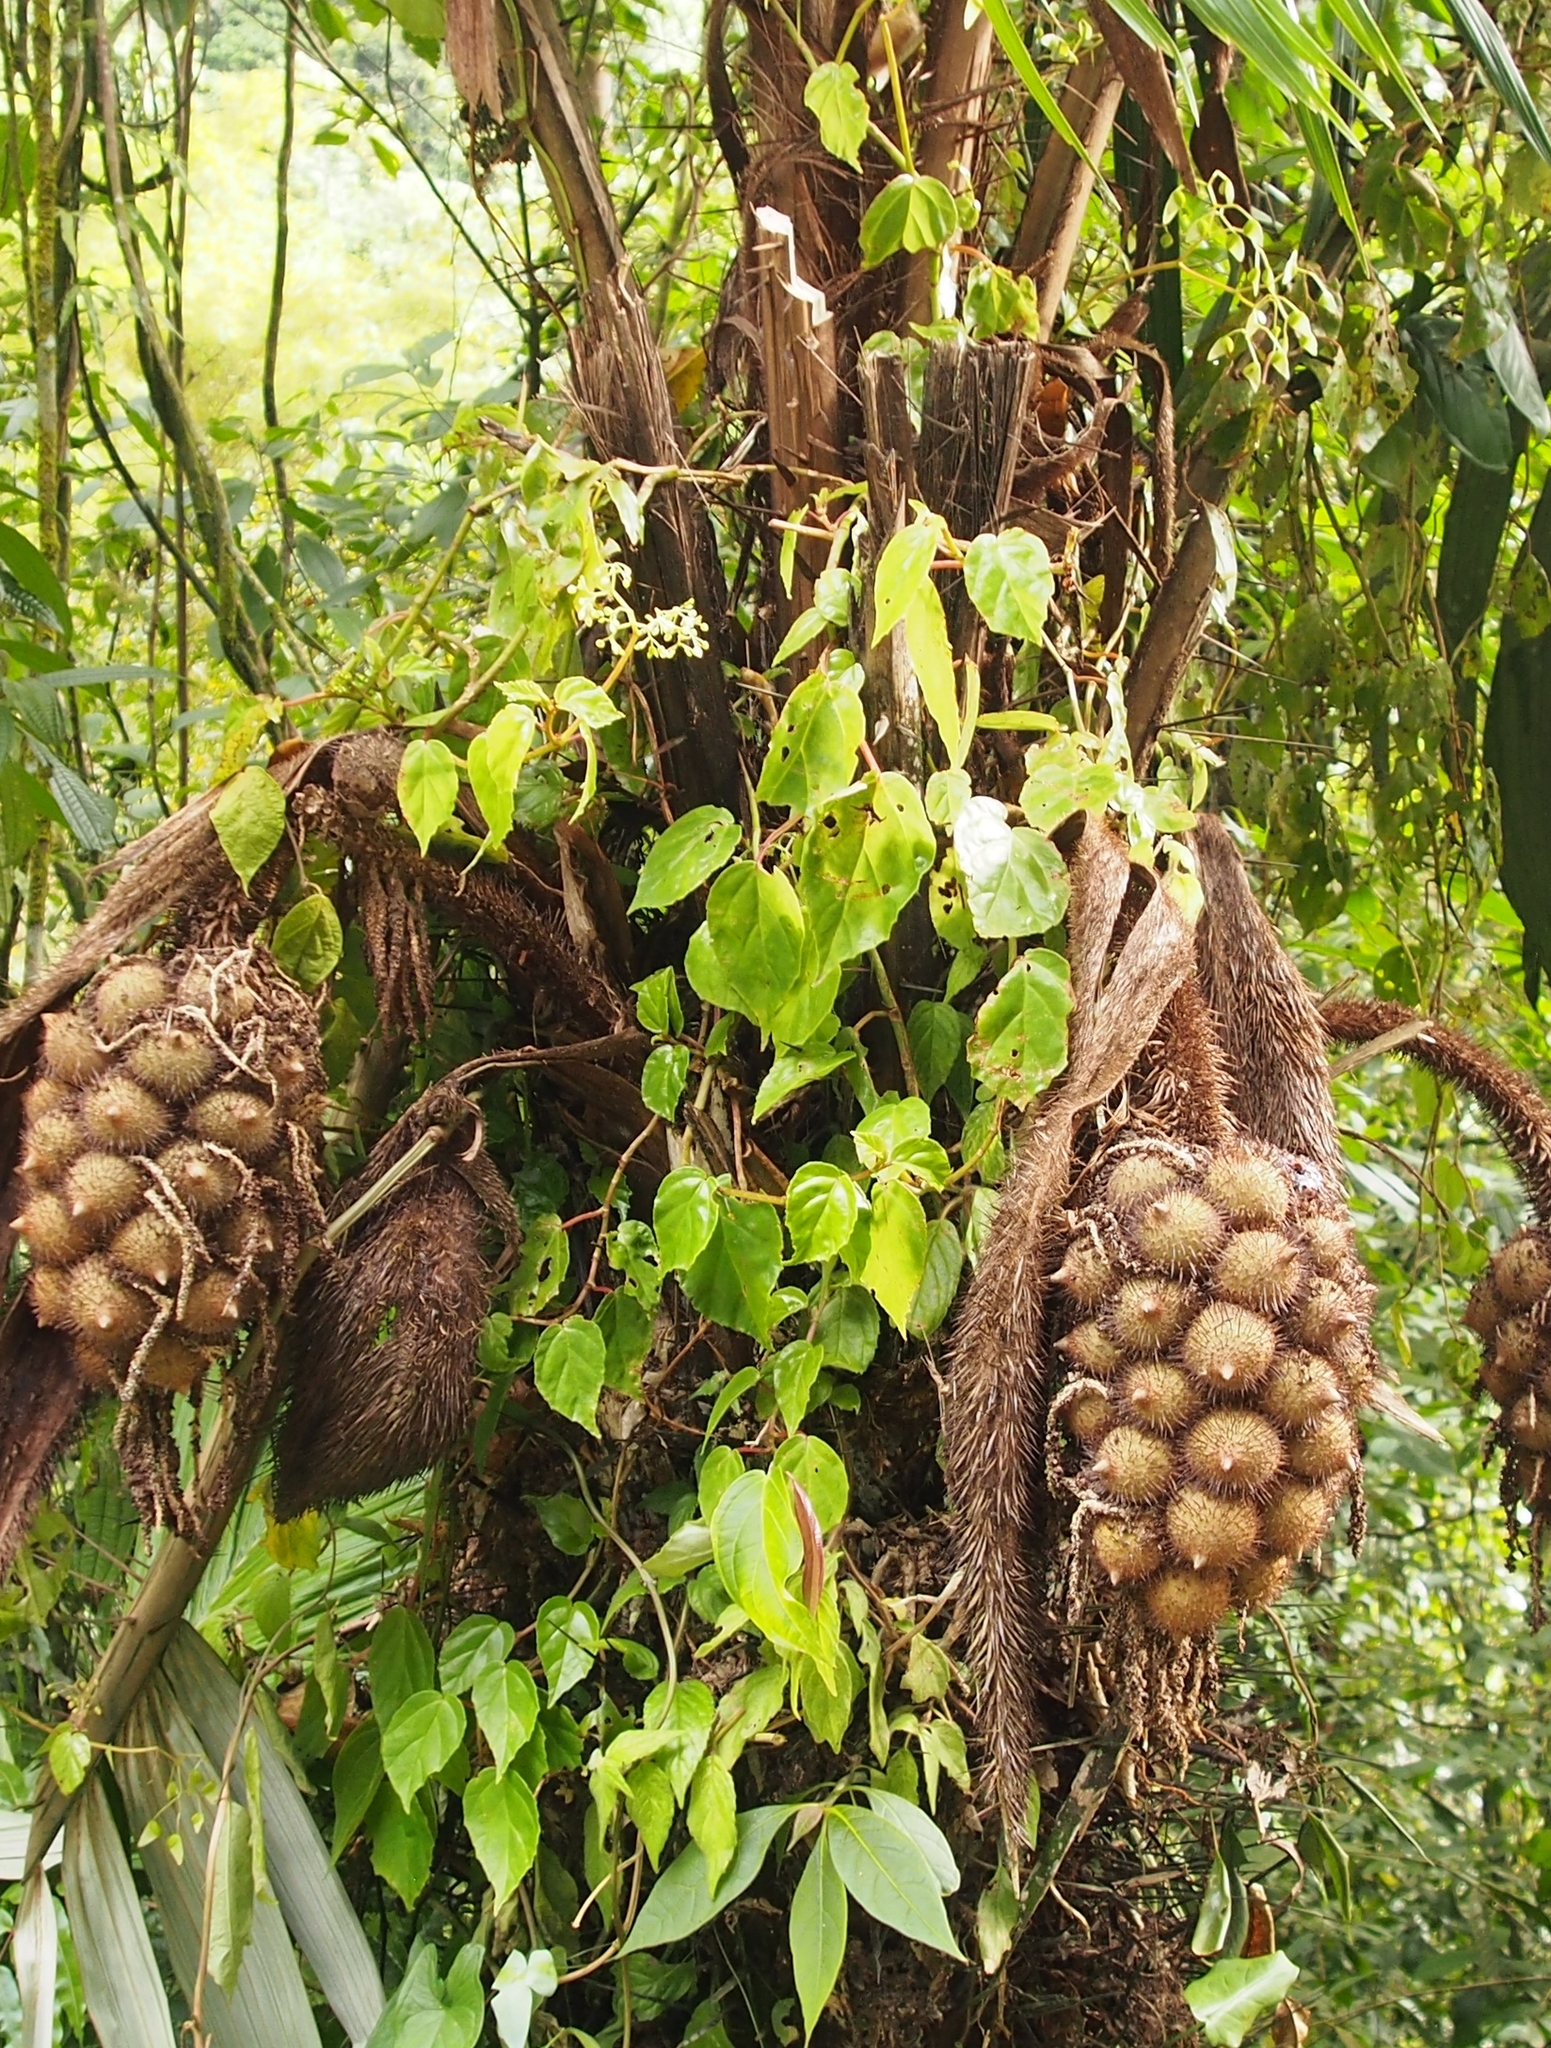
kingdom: Plantae
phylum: Tracheophyta
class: Magnoliopsida
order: Cucurbitales
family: Begoniaceae
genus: Begonia
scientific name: Begonia glabra
